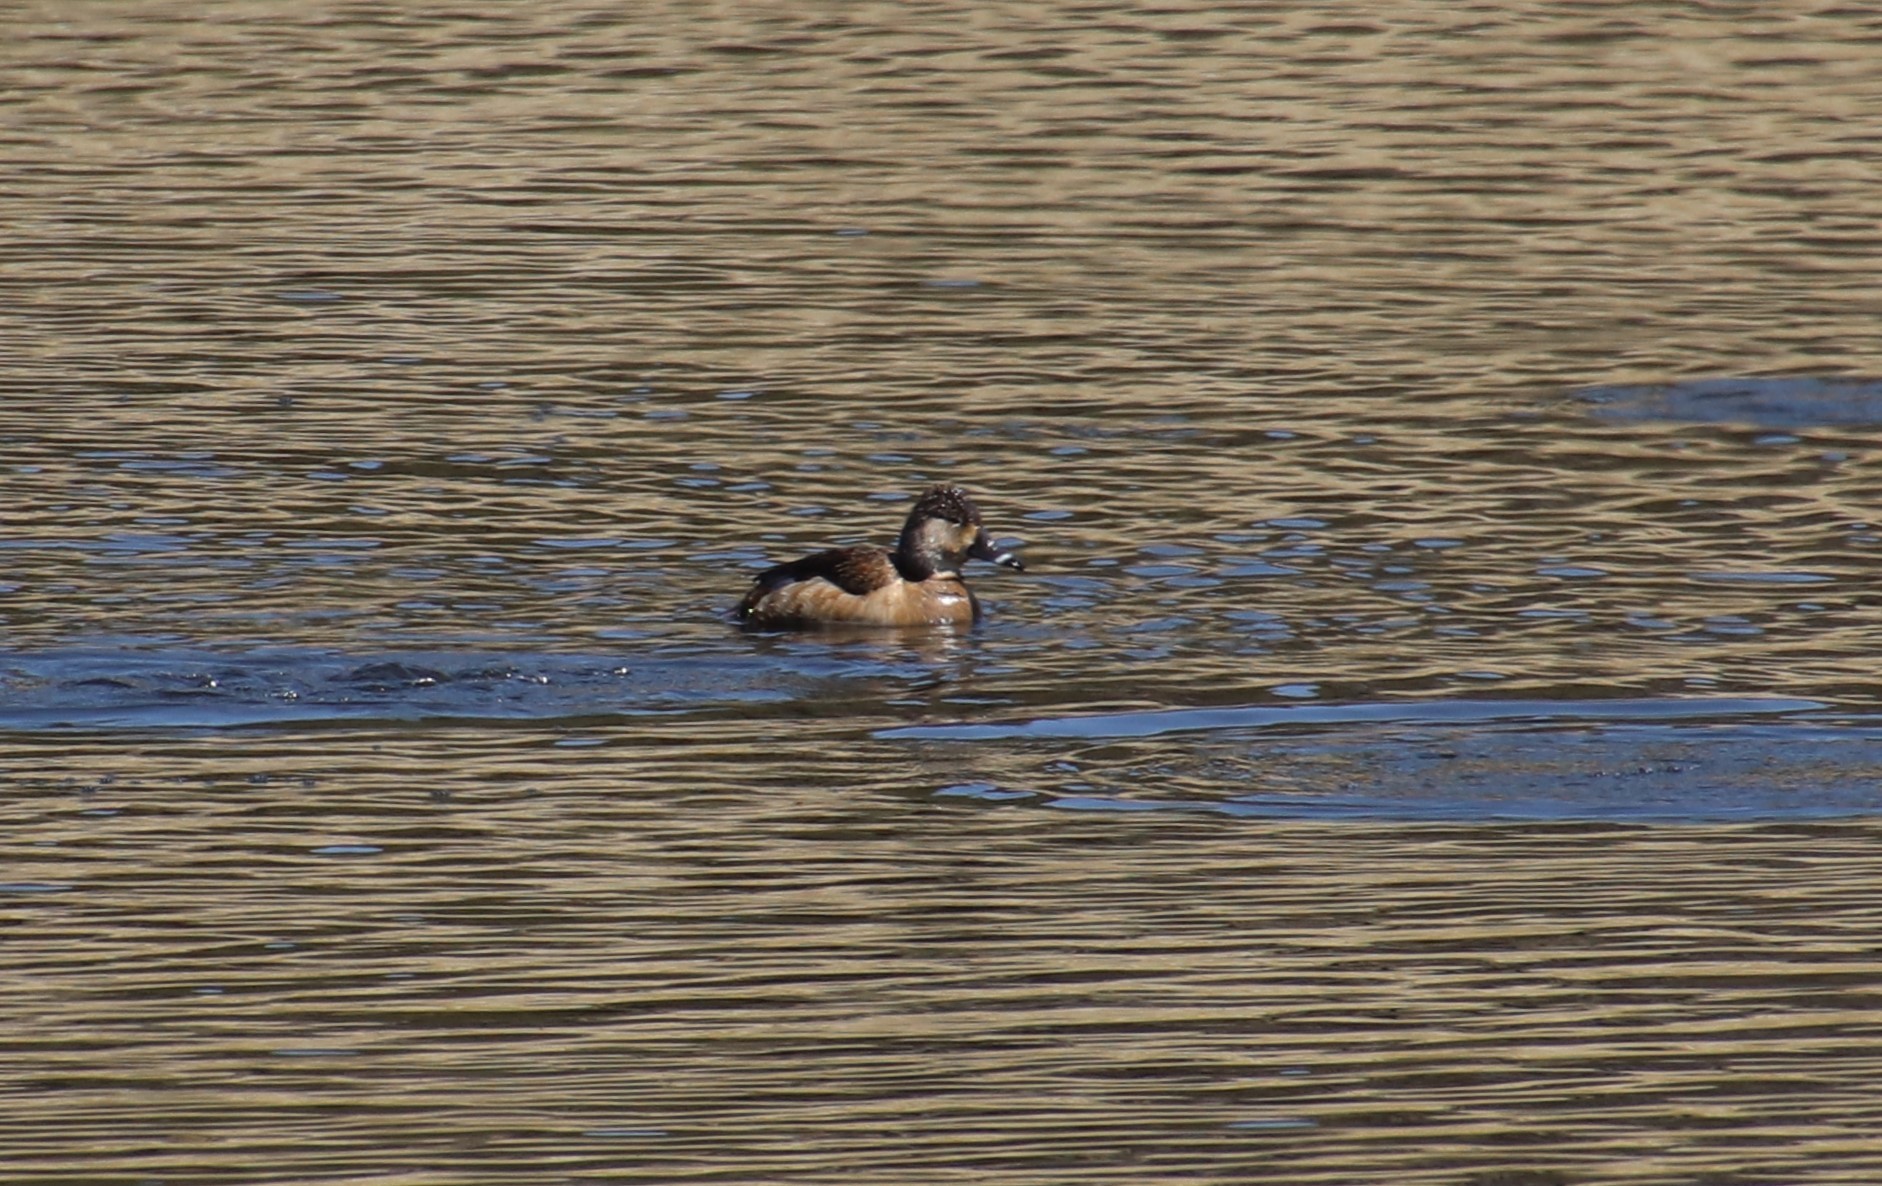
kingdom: Animalia
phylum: Chordata
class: Aves
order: Anseriformes
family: Anatidae
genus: Aythya
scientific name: Aythya collaris
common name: Ring-necked duck
